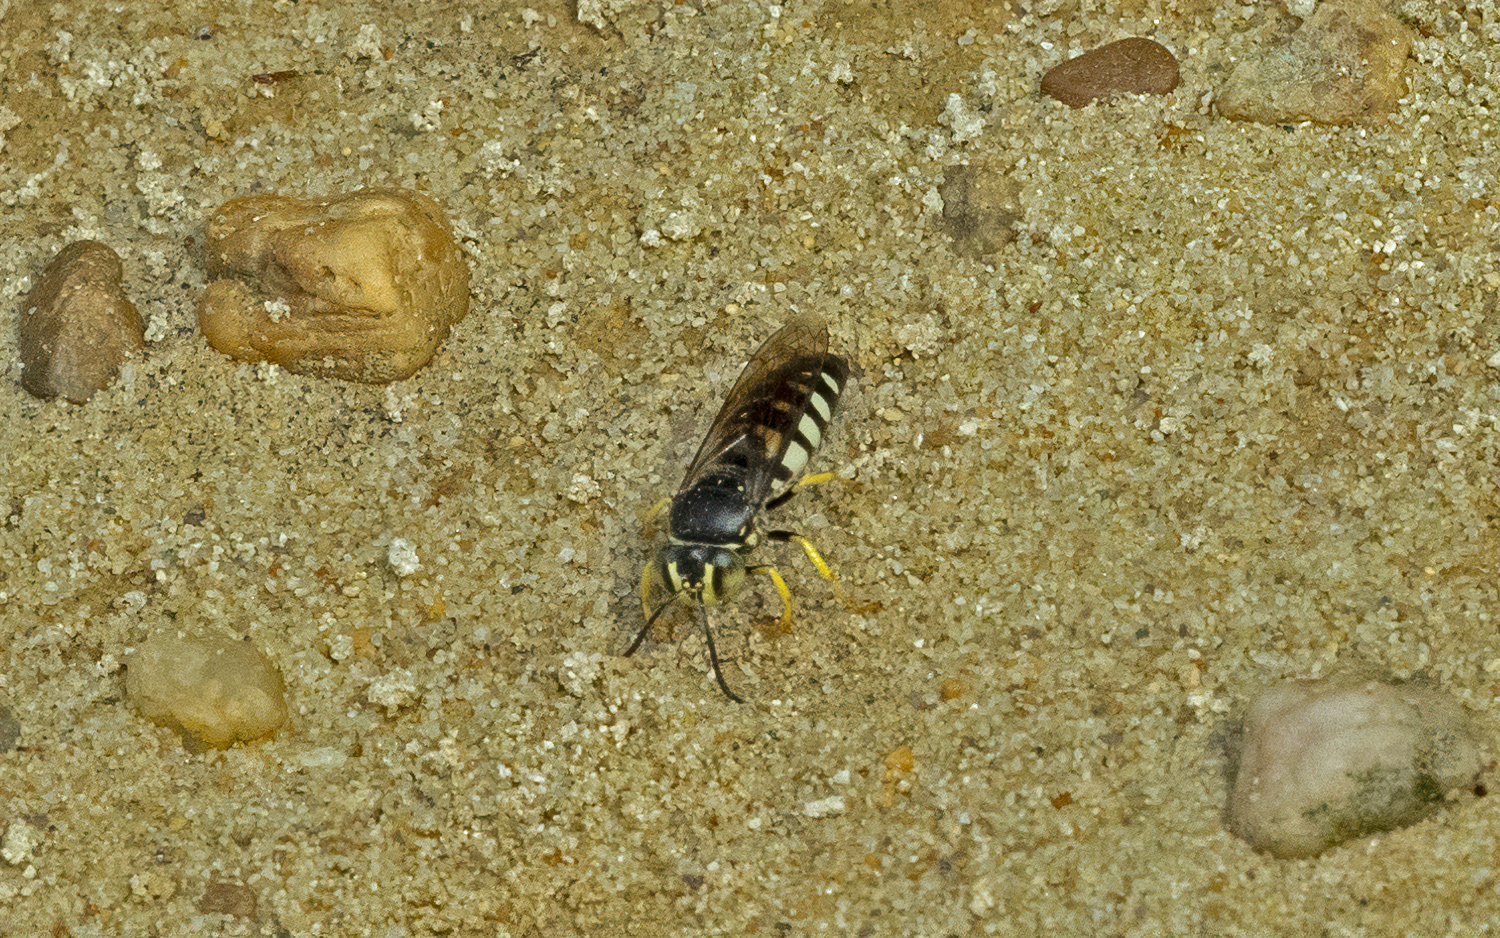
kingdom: Animalia
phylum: Arthropoda
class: Insecta
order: Hymenoptera
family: Crabronidae
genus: Bicyrtes
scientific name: Bicyrtes quadrifasciatus
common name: Four-banded stink bug hunter wasp
